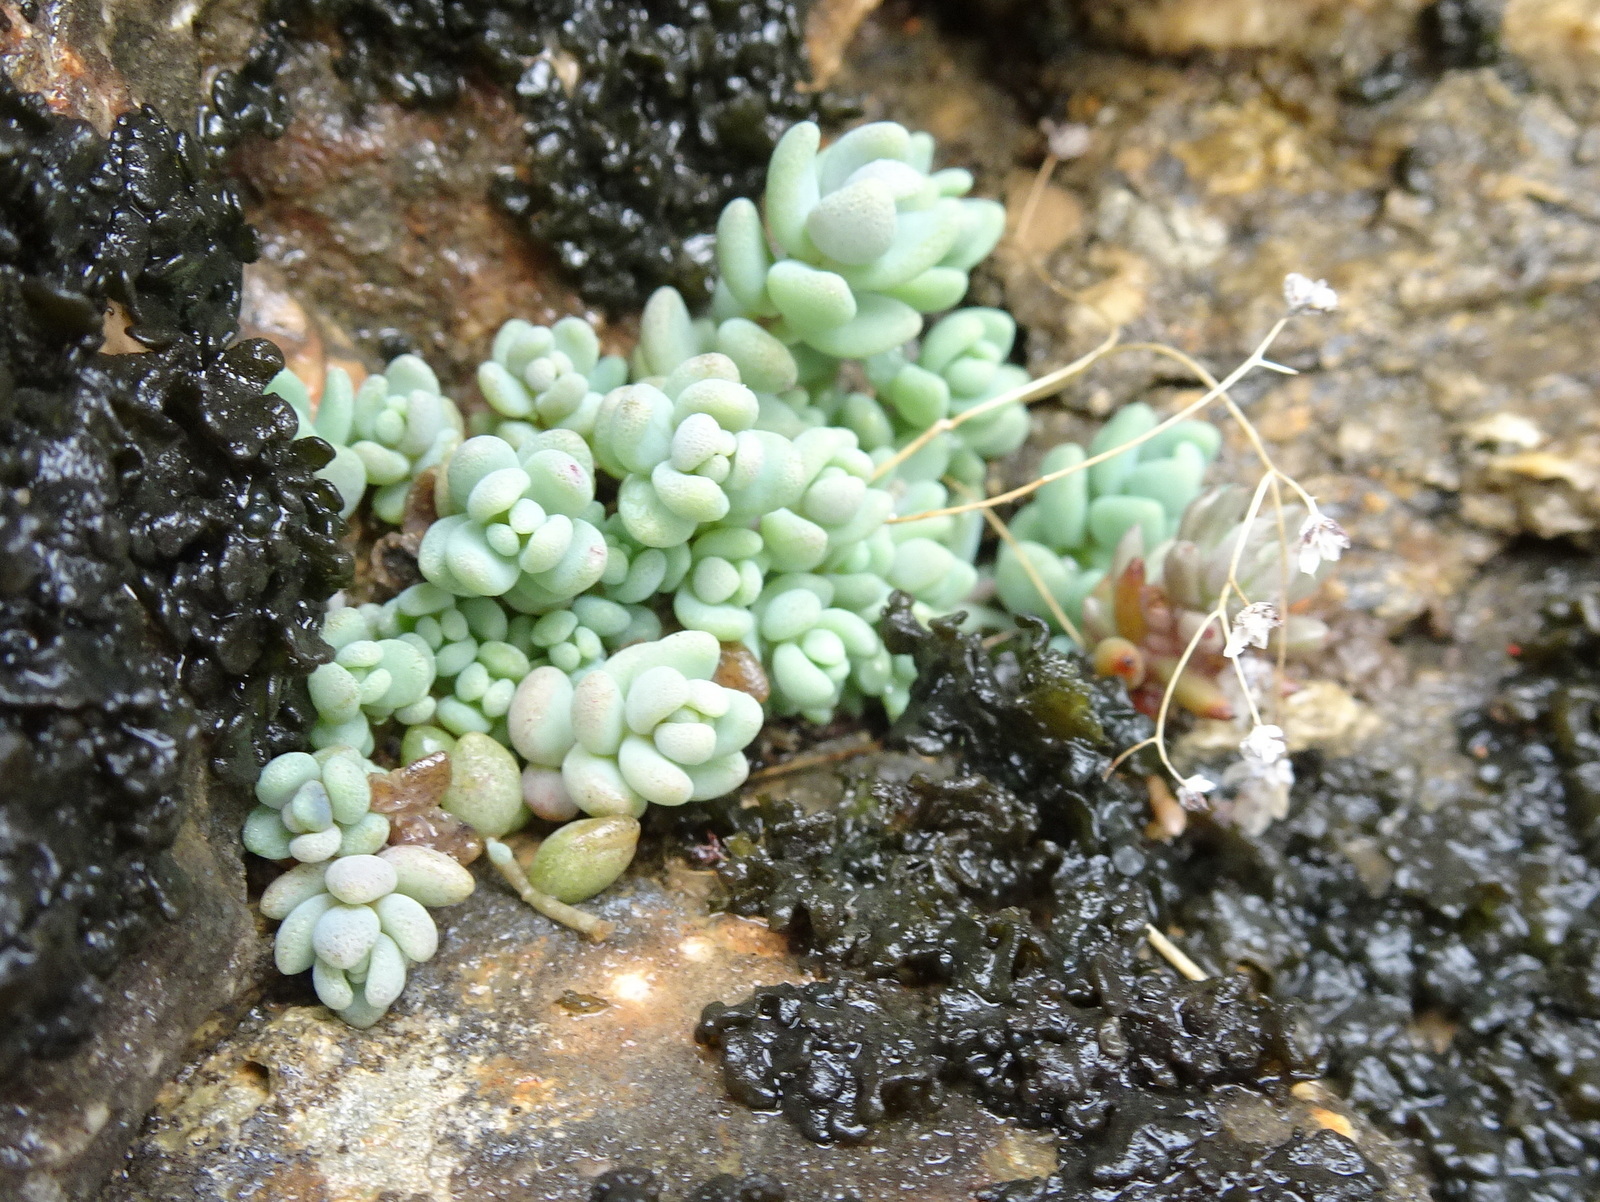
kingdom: Plantae
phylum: Tracheophyta
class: Magnoliopsida
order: Saxifragales
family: Crassulaceae
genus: Sedum
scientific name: Sedum dasyphyllum
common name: Thick-leaf stonecrop
